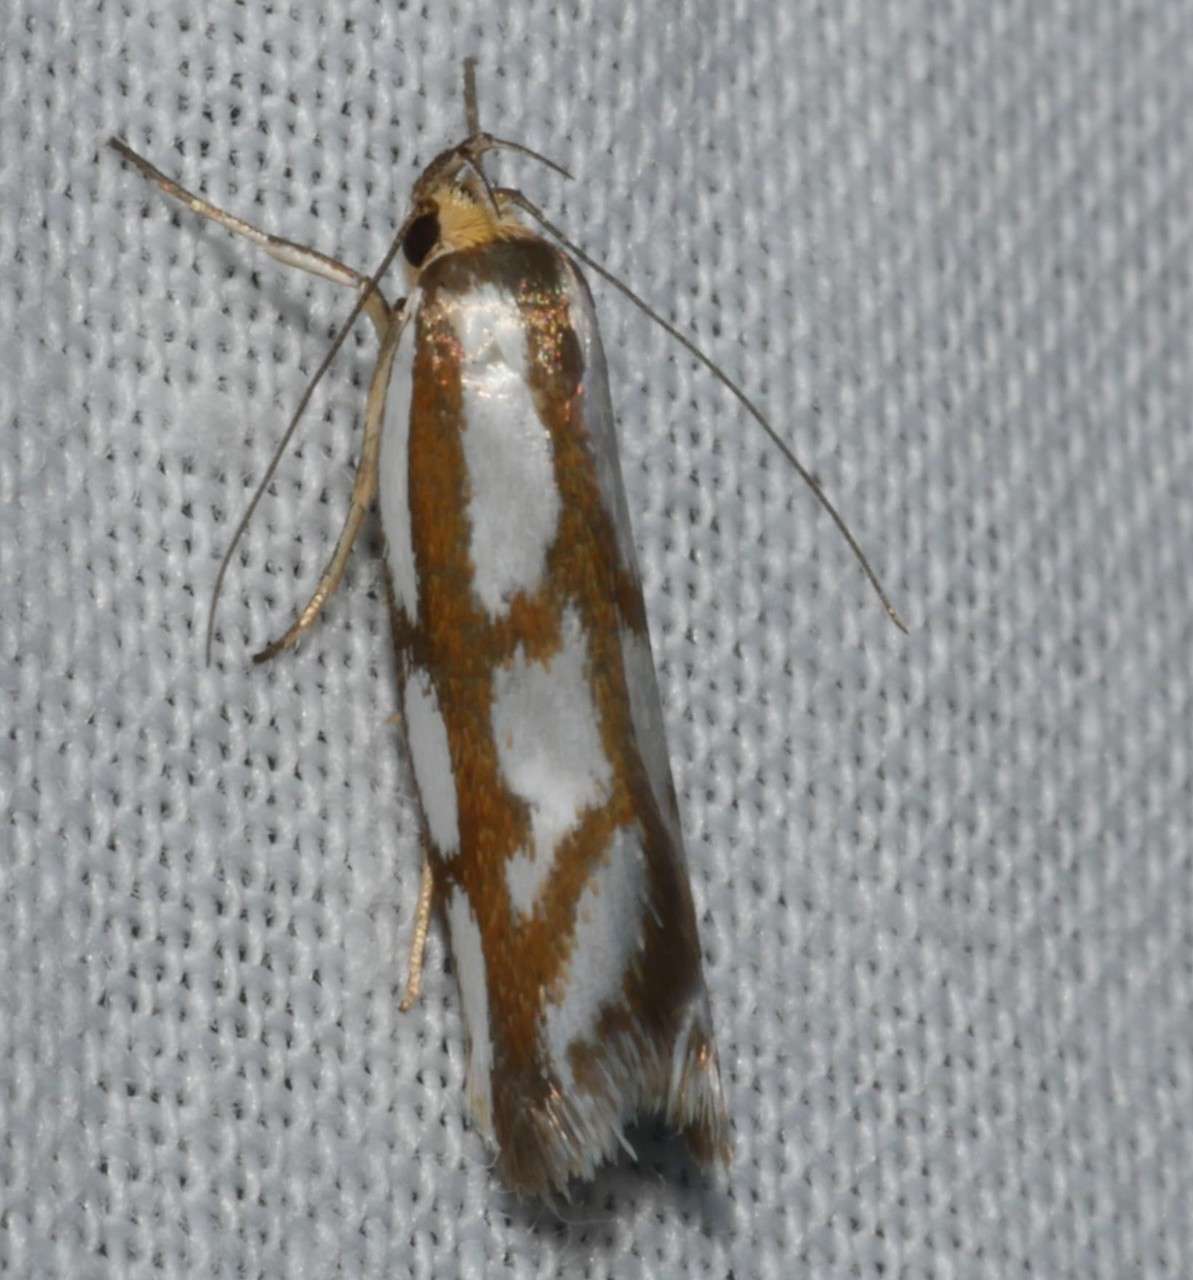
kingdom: Animalia
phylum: Arthropoda
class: Insecta
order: Lepidoptera
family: Oecophoridae
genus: Myrascia
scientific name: Myrascia bracteatella
